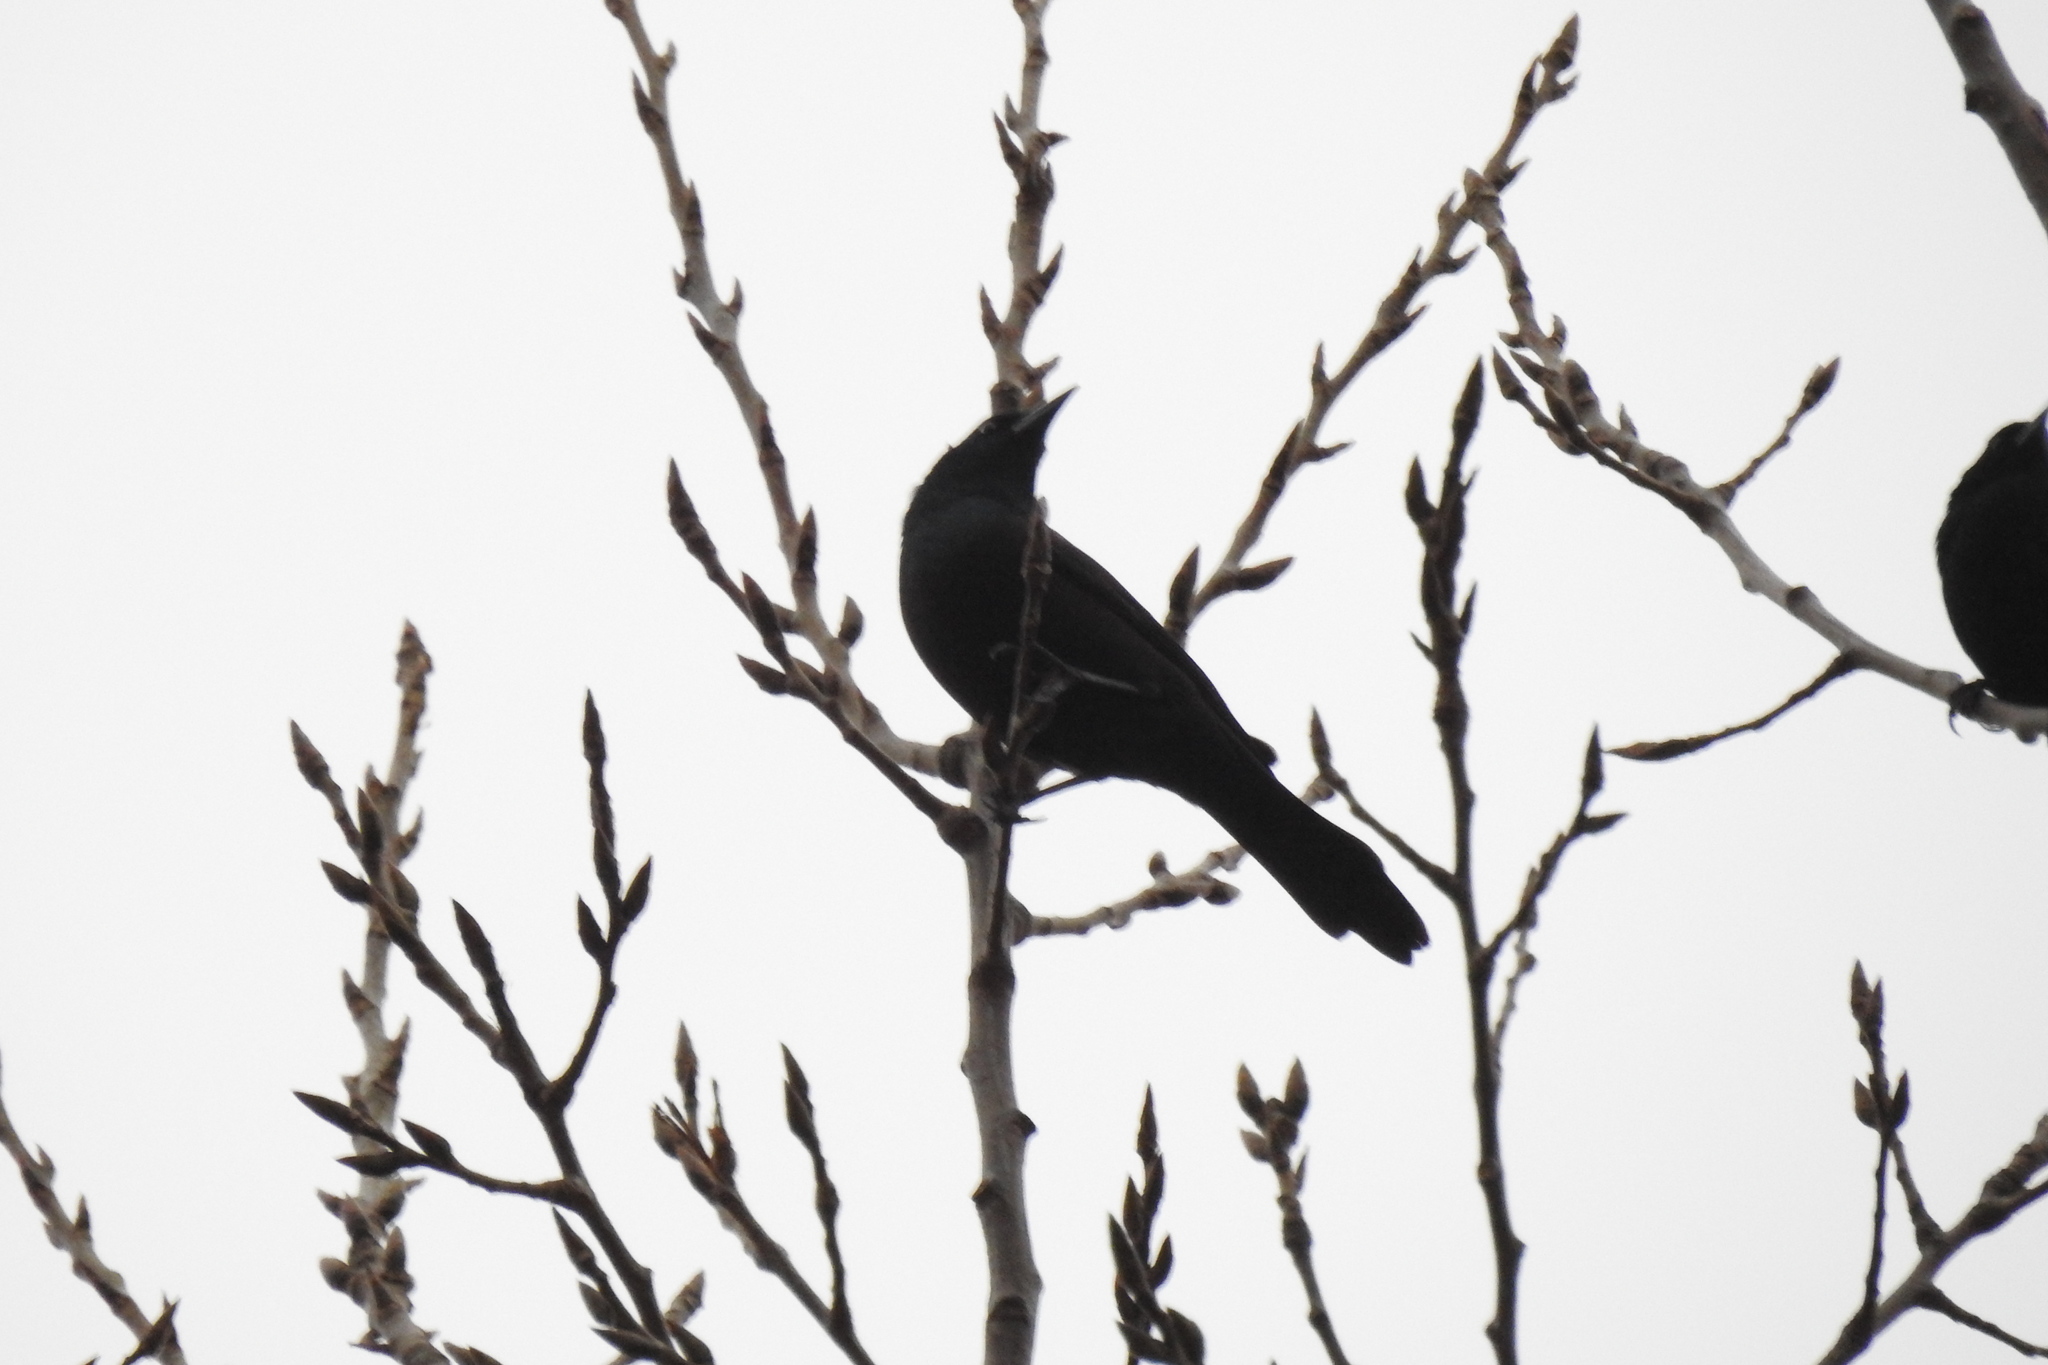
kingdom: Animalia
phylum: Chordata
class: Aves
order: Passeriformes
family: Icteridae
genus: Quiscalus
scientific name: Quiscalus quiscula
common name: Common grackle
